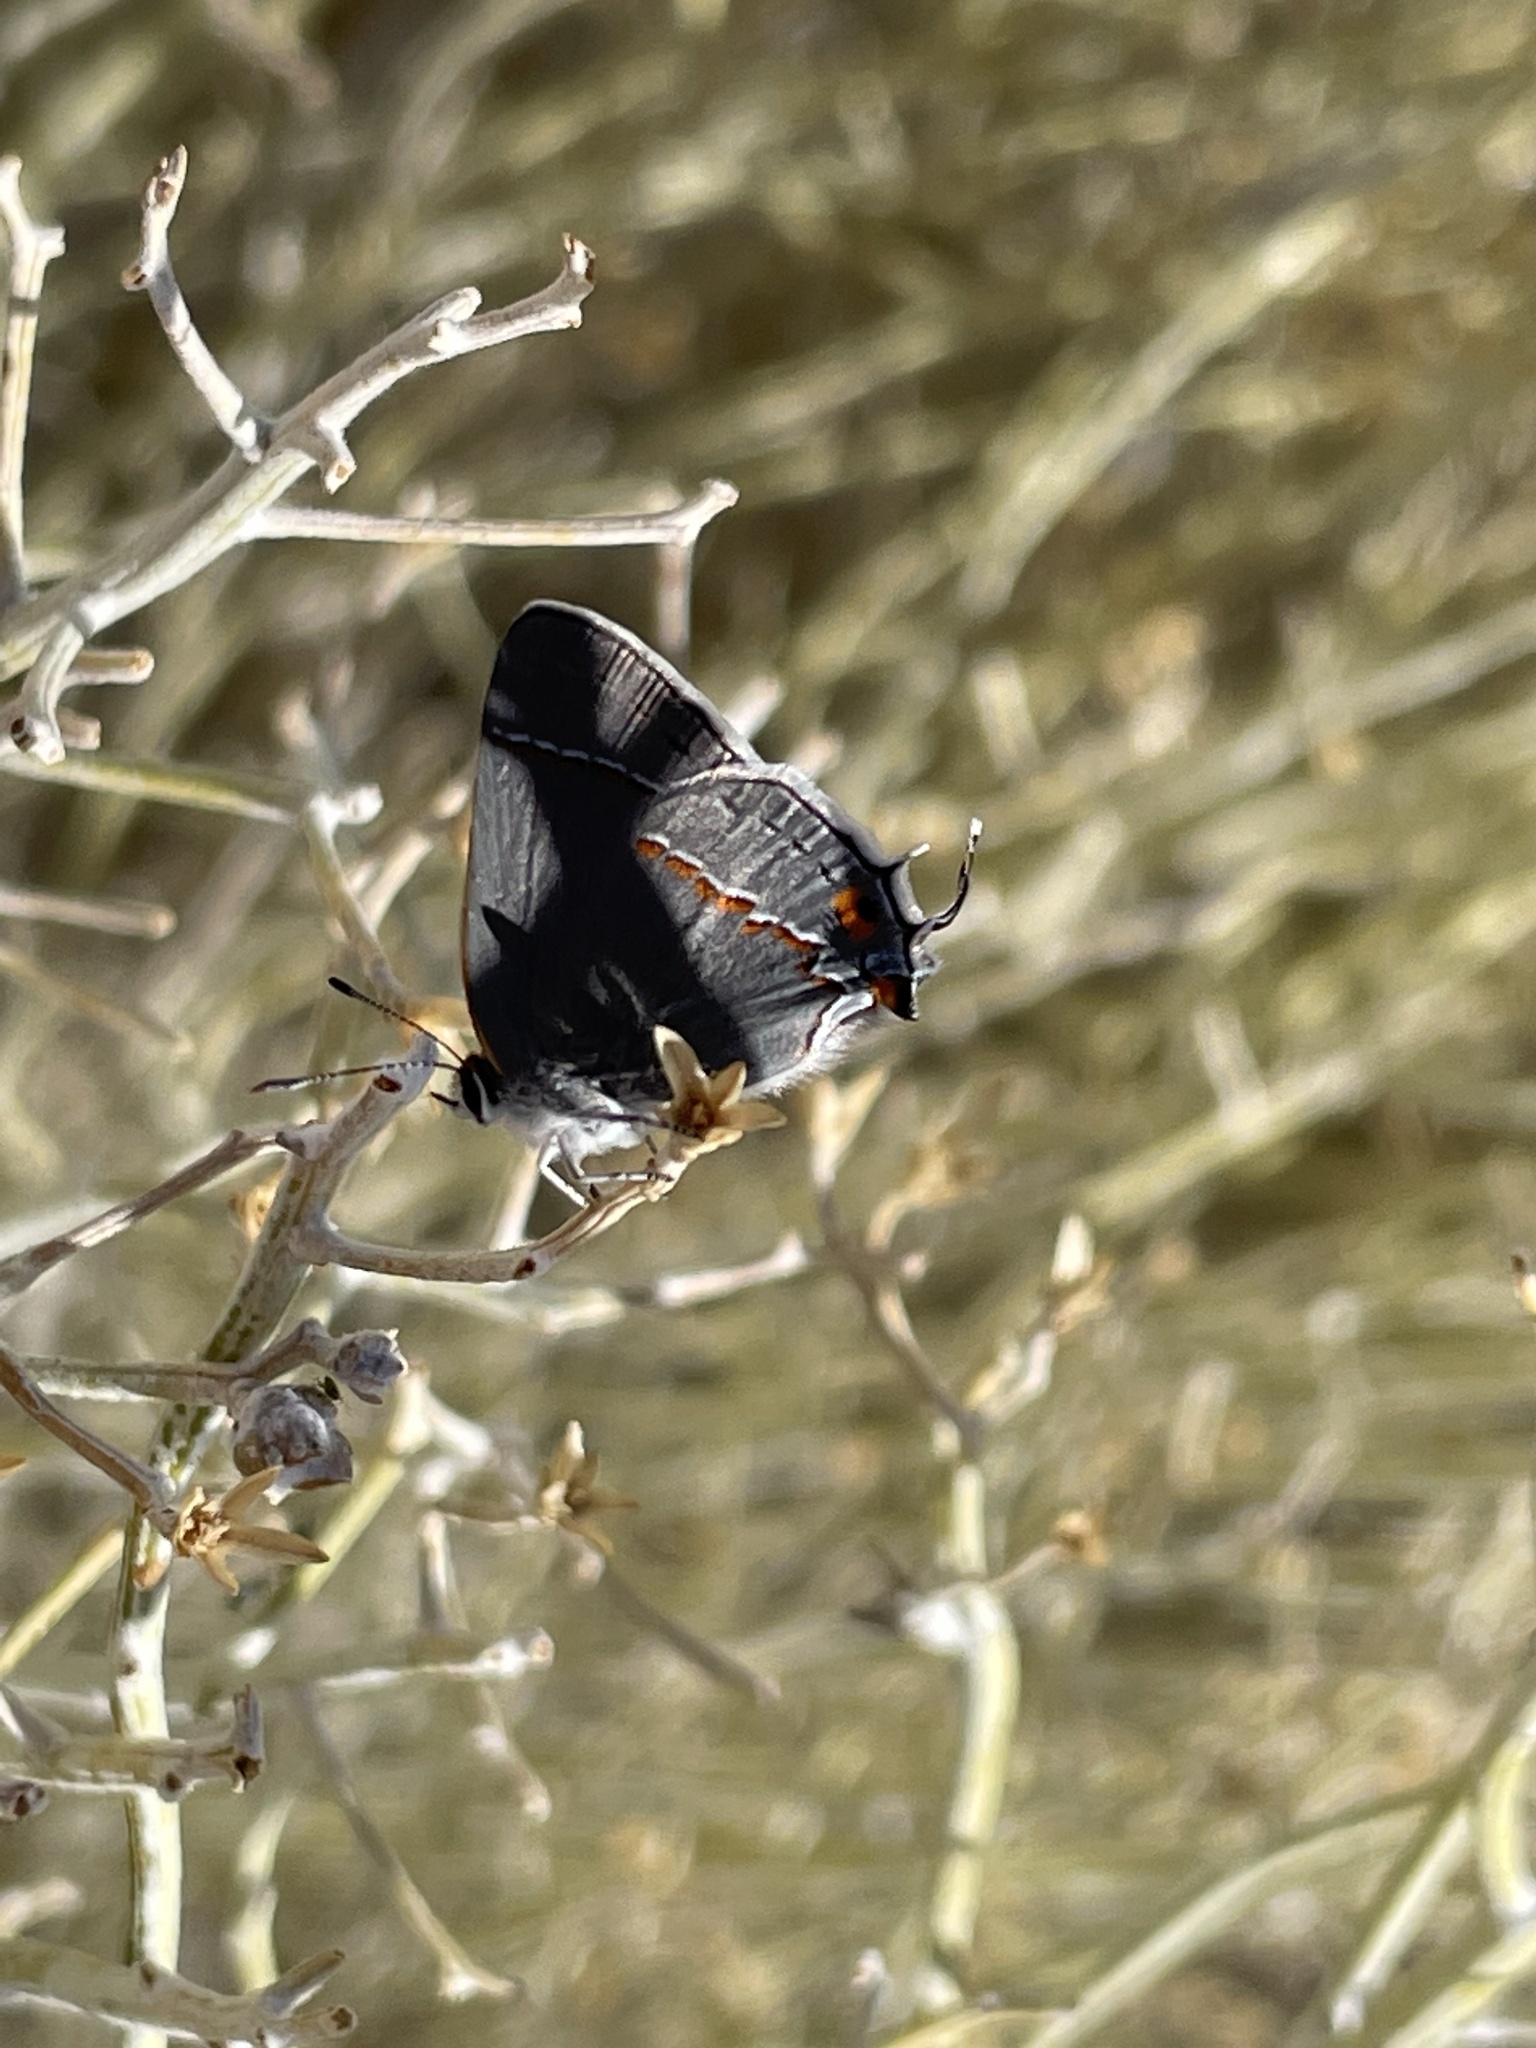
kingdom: Animalia
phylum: Arthropoda
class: Insecta
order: Lepidoptera
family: Lycaenidae
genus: Strymon
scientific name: Strymon melinus
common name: Gray hairstreak
